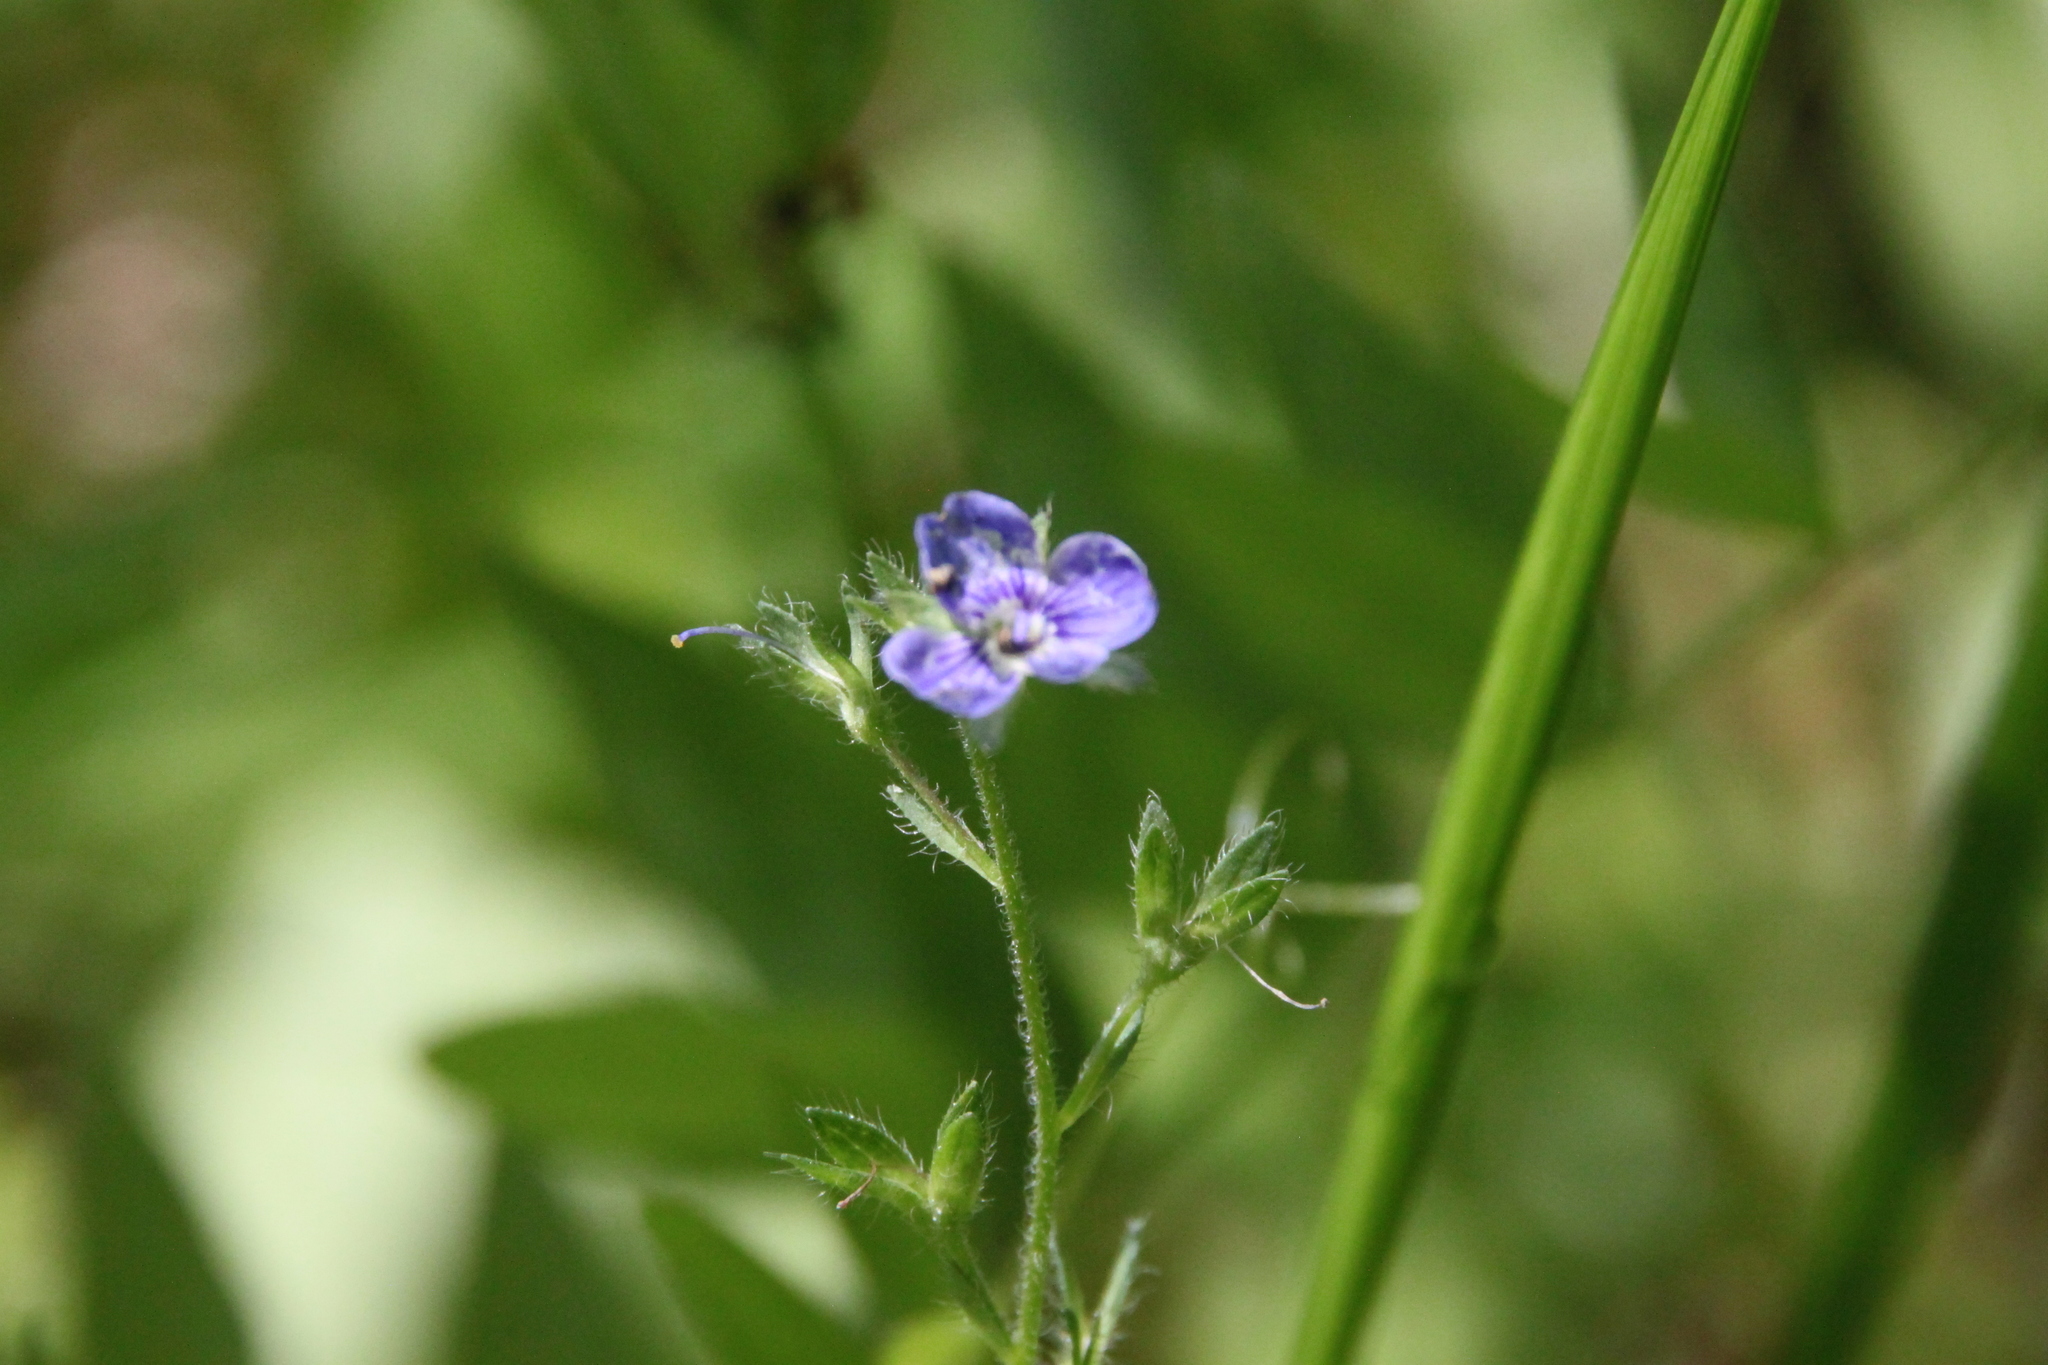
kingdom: Plantae
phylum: Tracheophyta
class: Magnoliopsida
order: Lamiales
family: Plantaginaceae
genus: Veronica
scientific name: Veronica chamaedrys
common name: Germander speedwell
